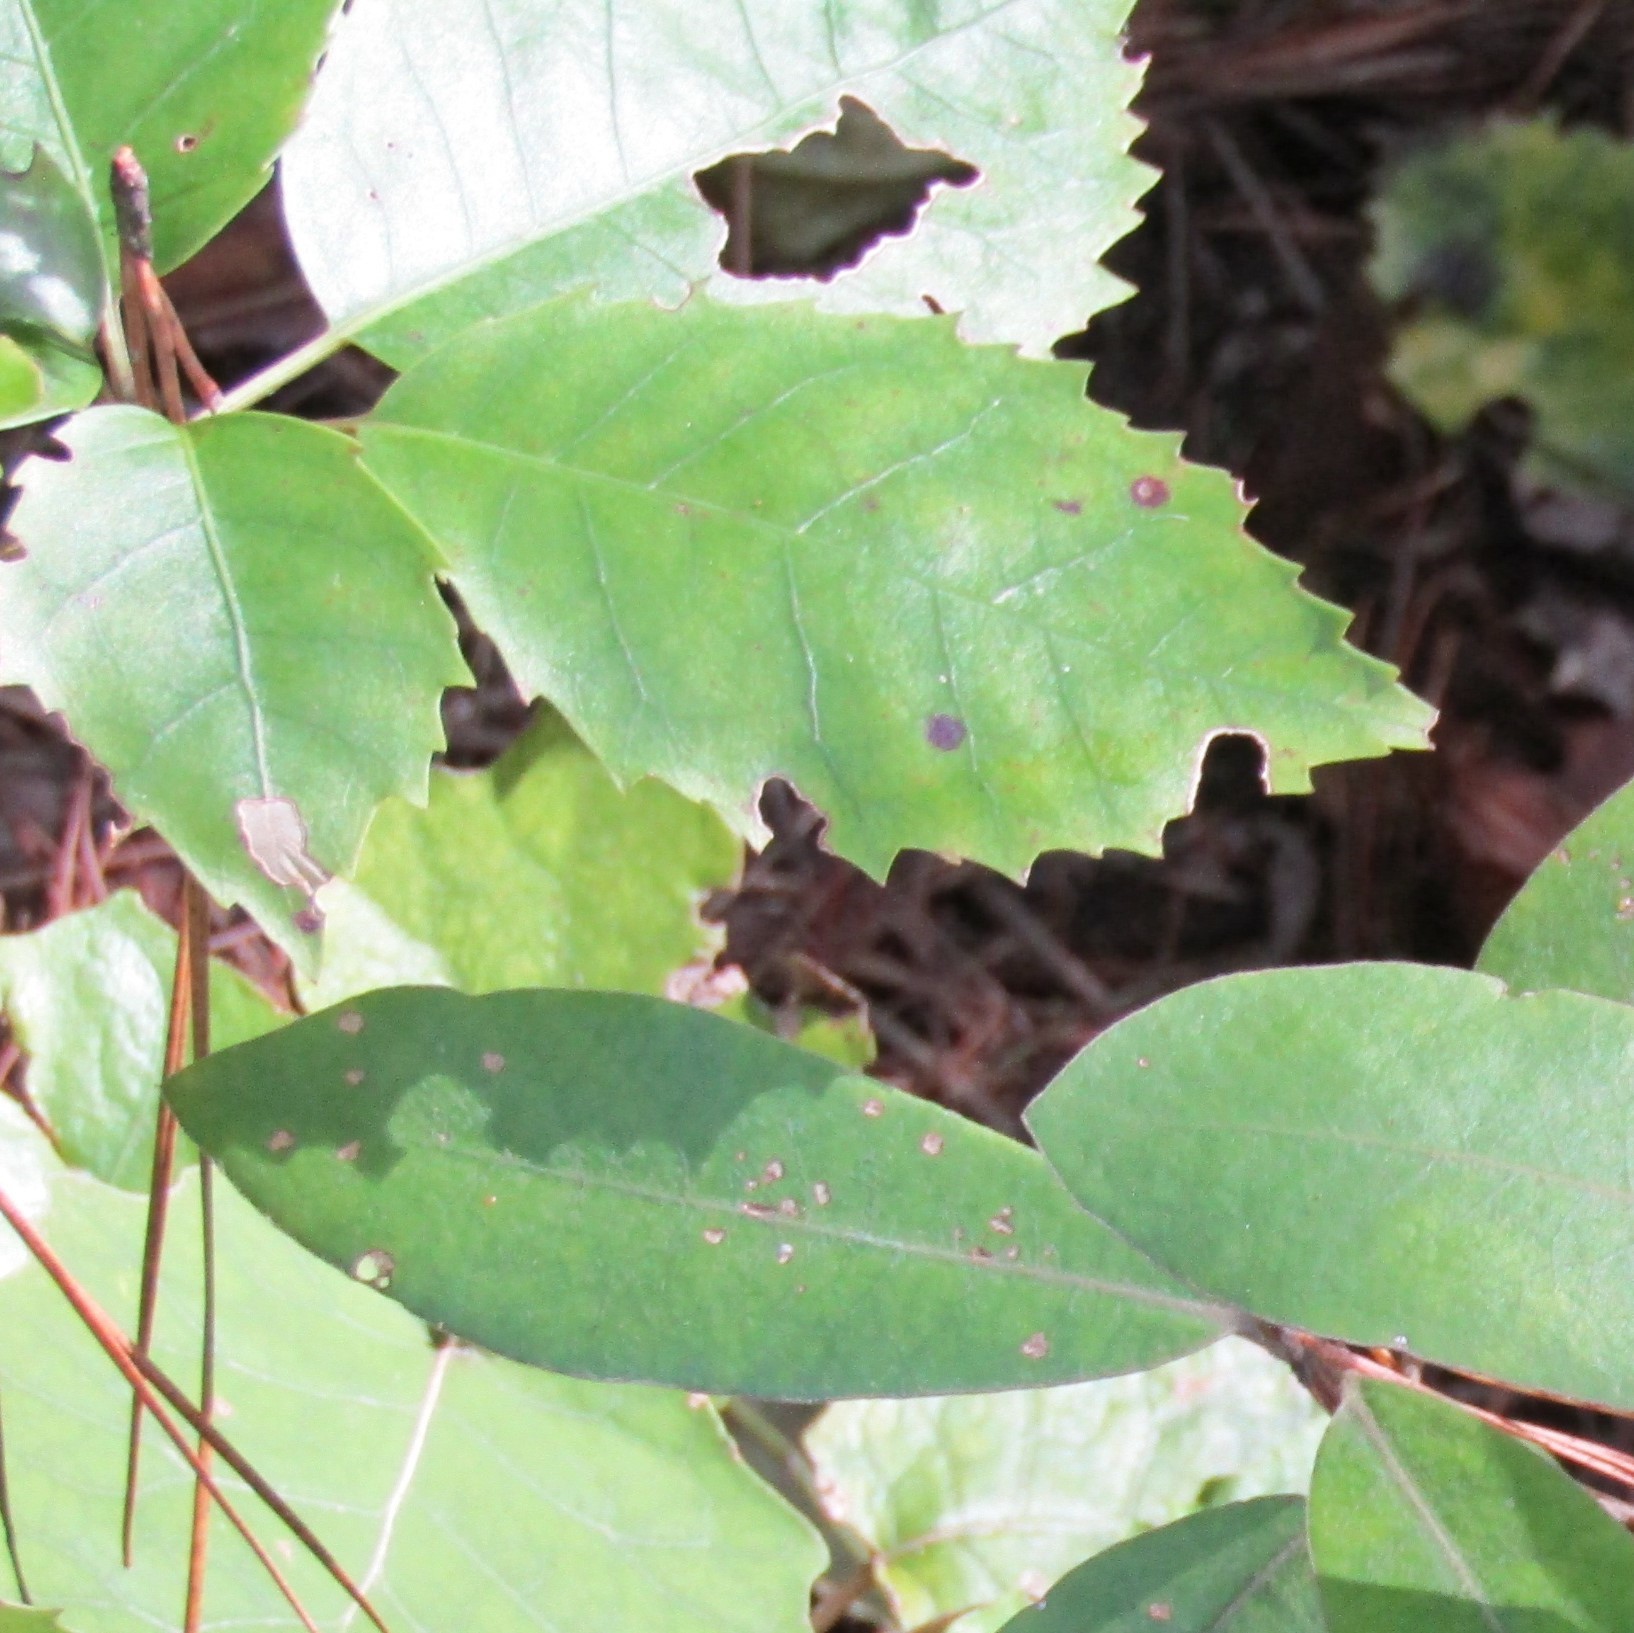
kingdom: Plantae
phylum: Tracheophyta
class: Magnoliopsida
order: Apiales
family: Araliaceae
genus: Neopanax
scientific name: Neopanax arboreus
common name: Five-fingers
